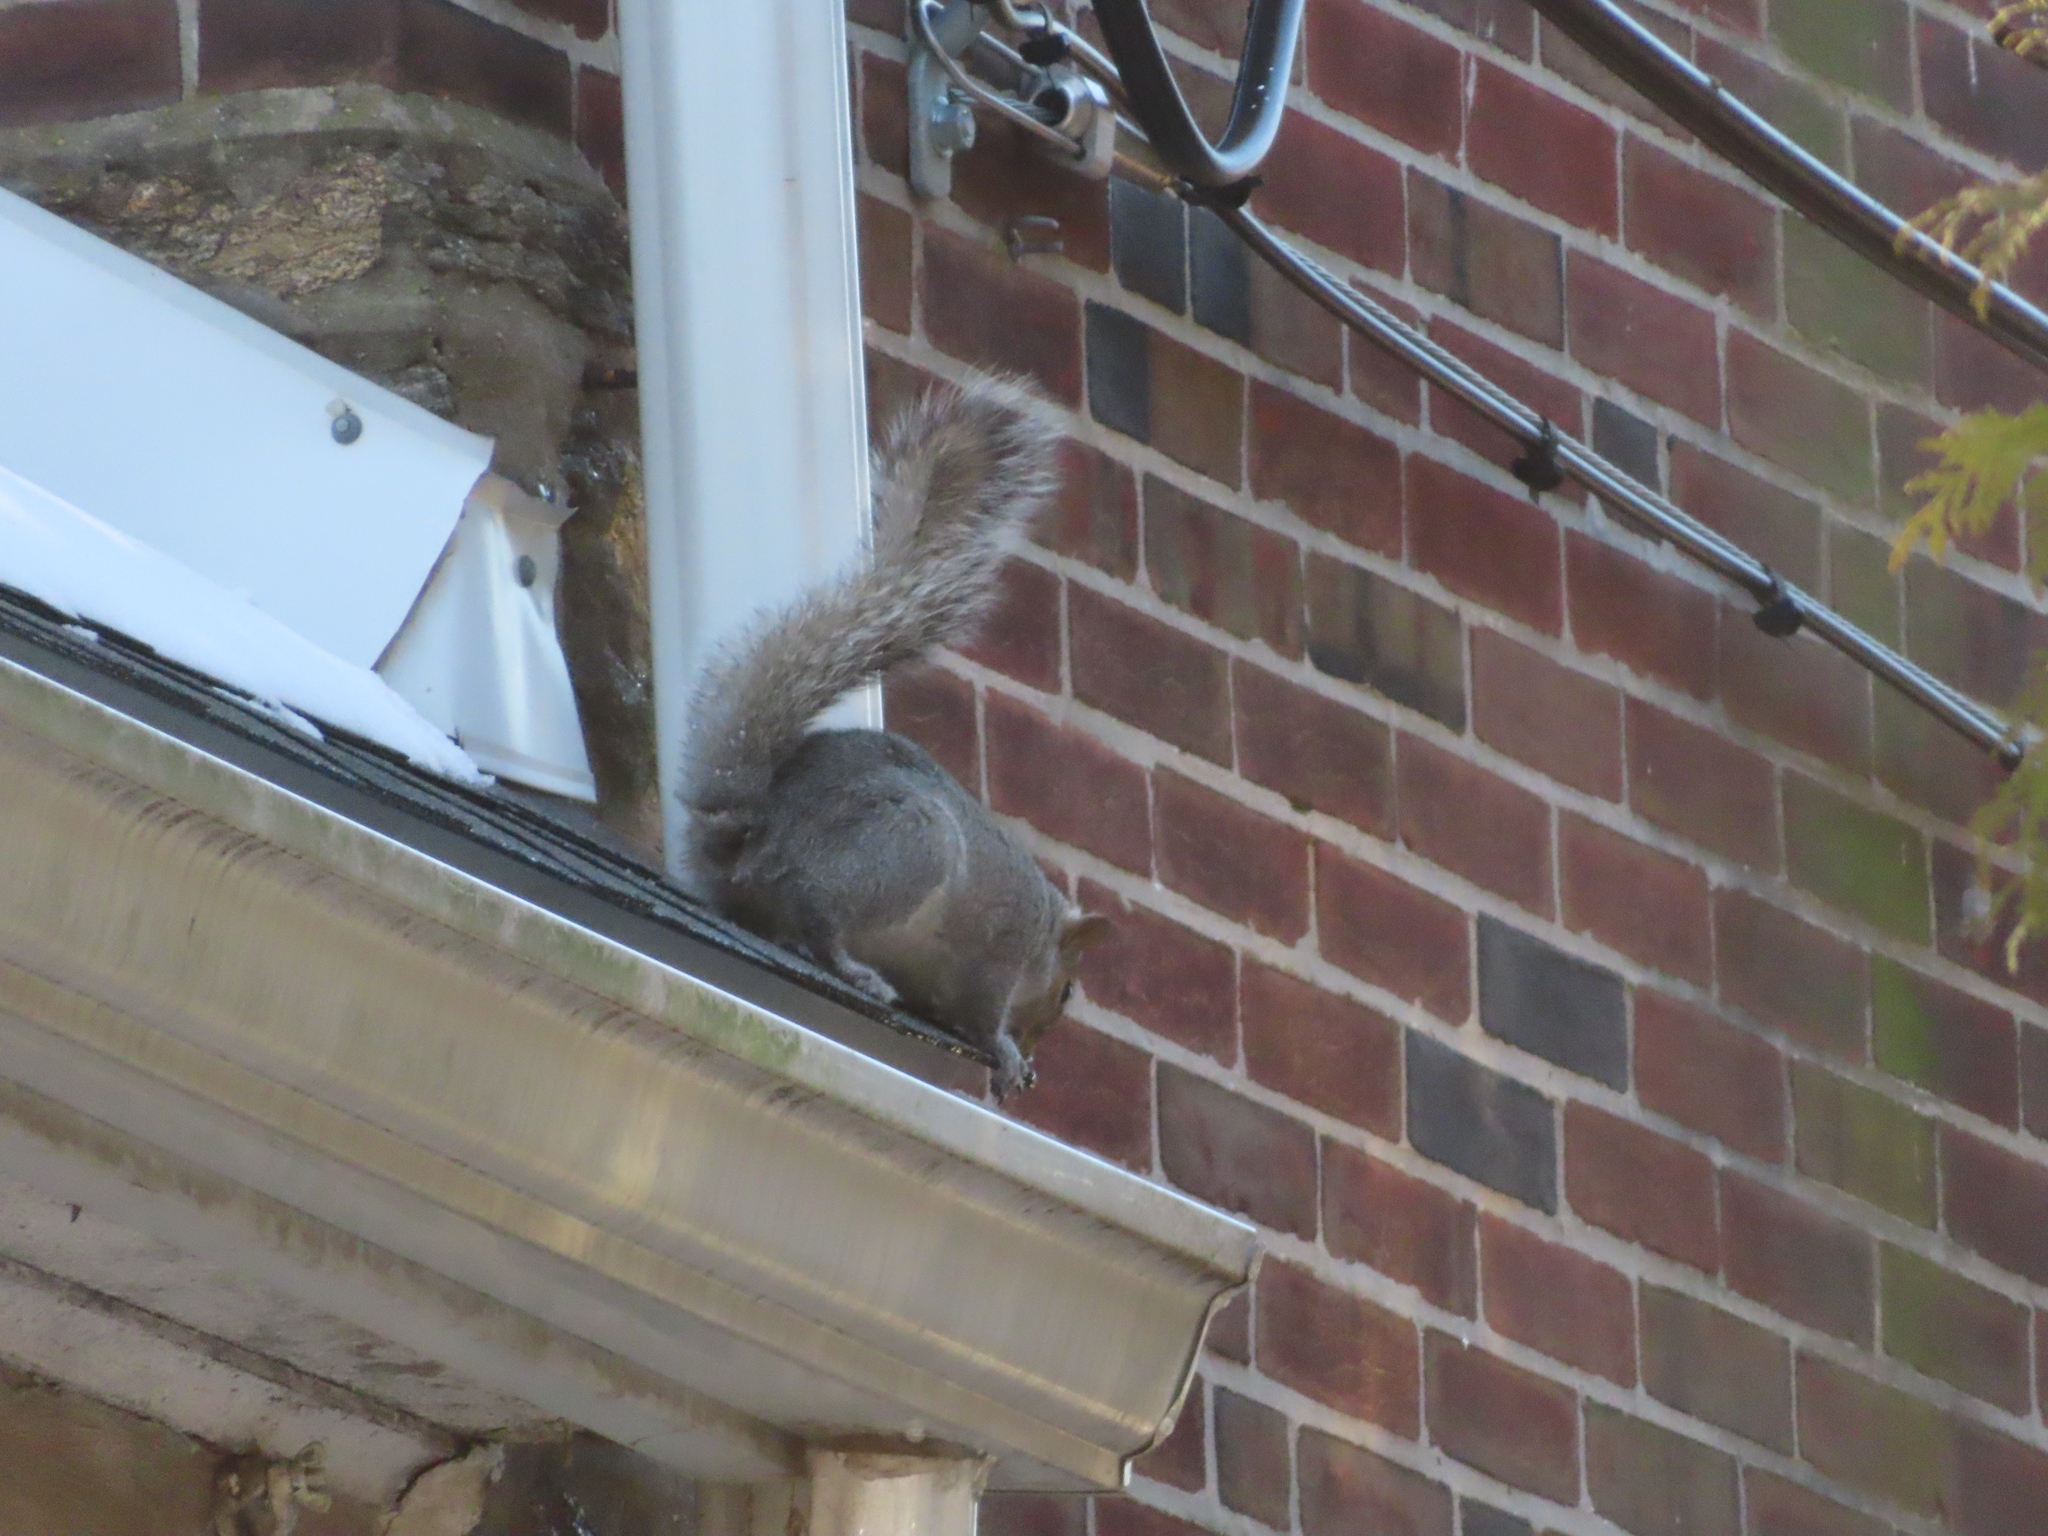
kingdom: Animalia
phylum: Chordata
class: Mammalia
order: Rodentia
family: Sciuridae
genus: Sciurus
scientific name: Sciurus carolinensis
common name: Eastern gray squirrel
